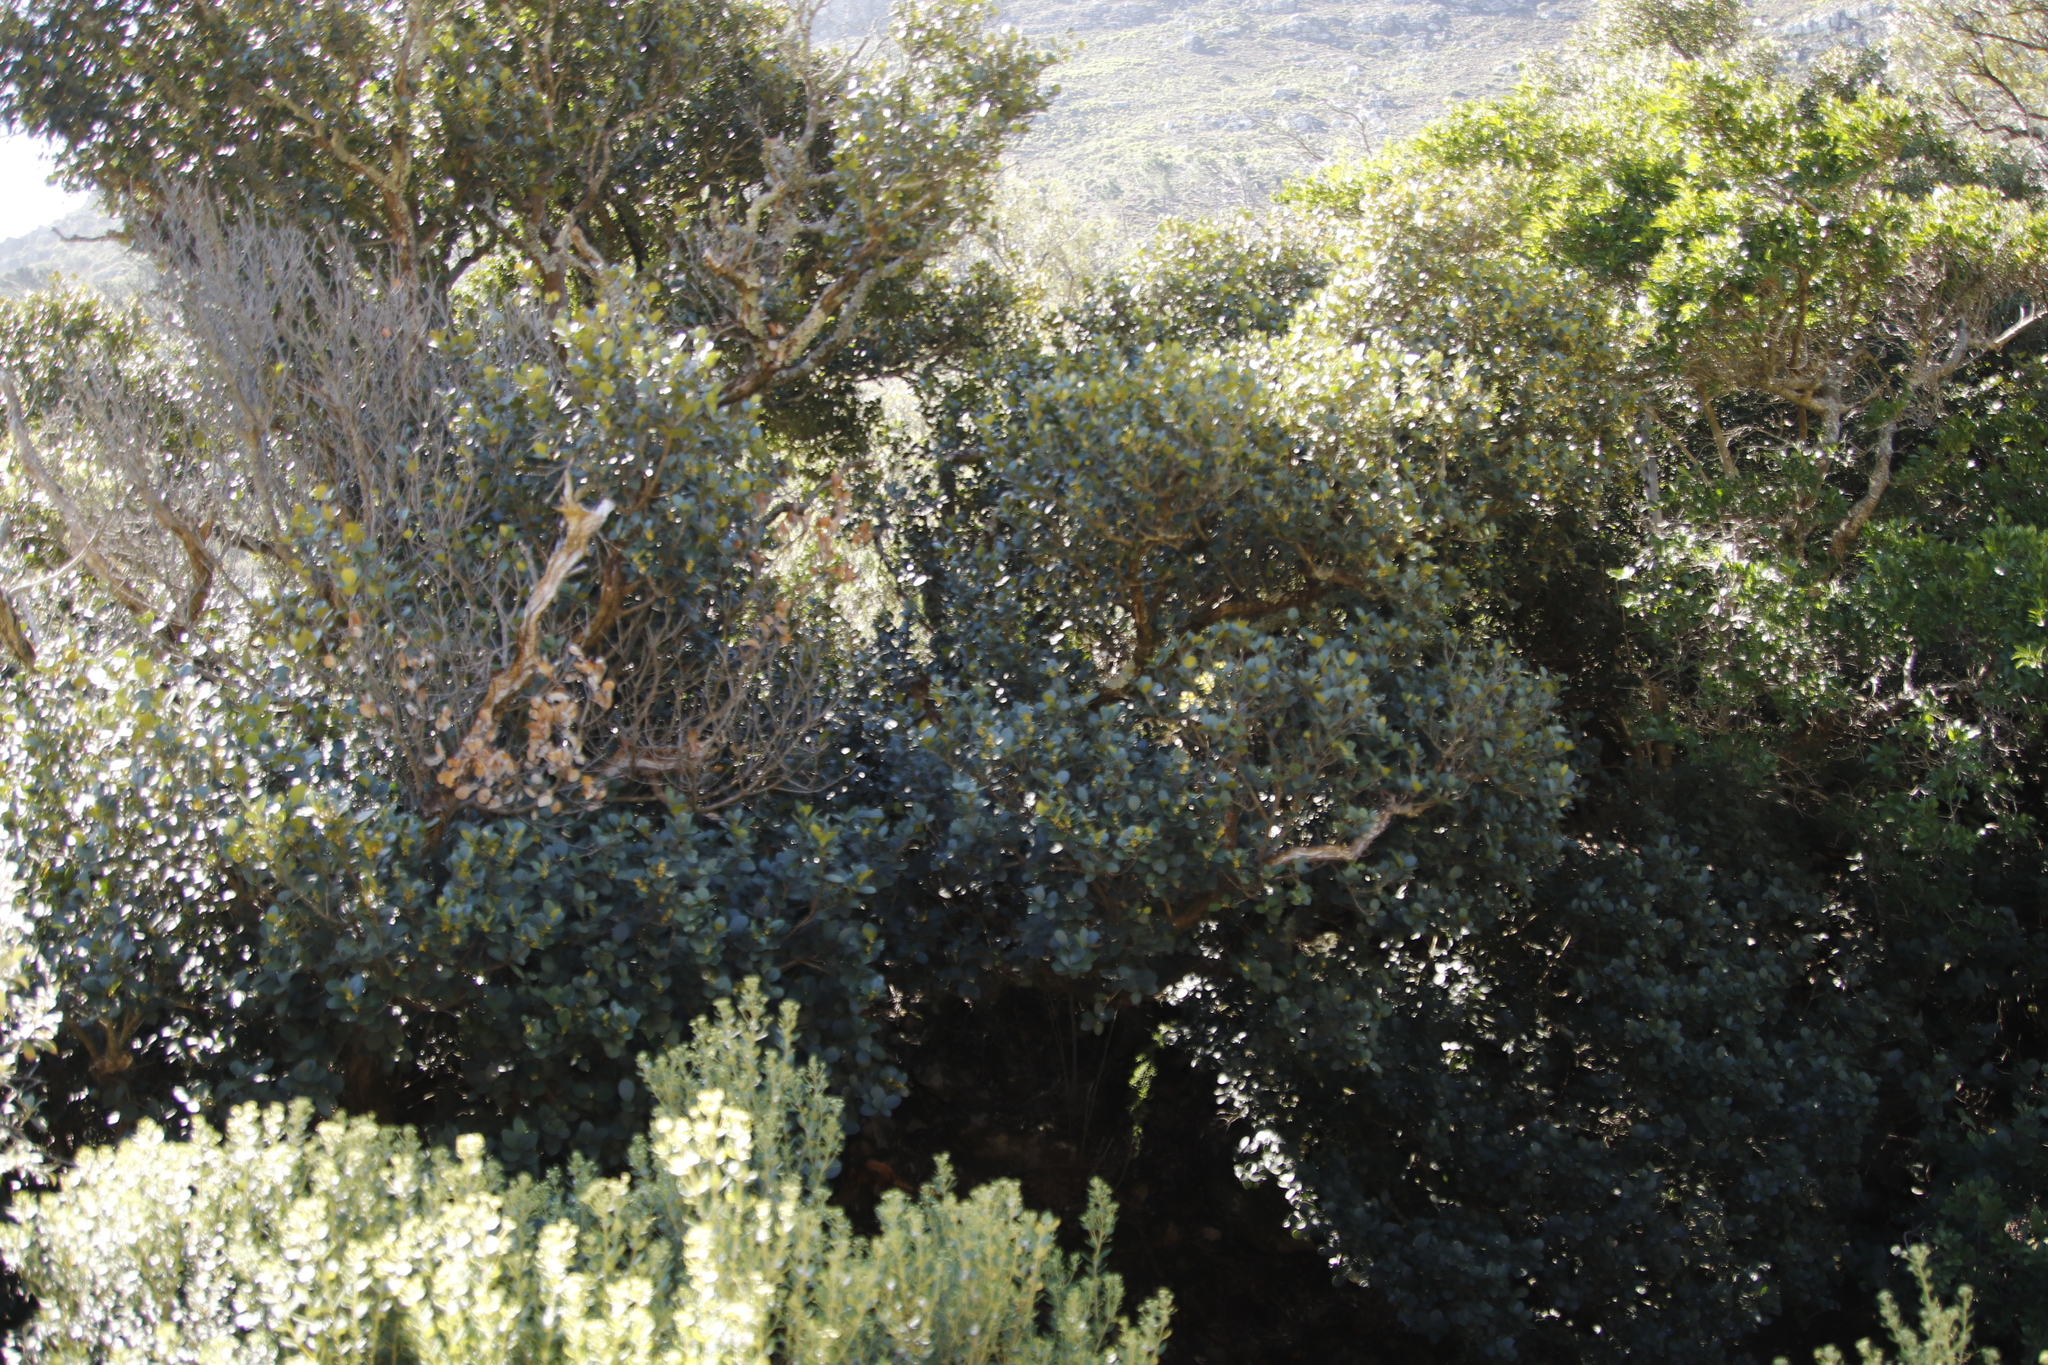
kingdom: Plantae
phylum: Tracheophyta
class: Magnoliopsida
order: Celastrales
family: Celastraceae
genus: Maurocenia
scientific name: Maurocenia frangula
